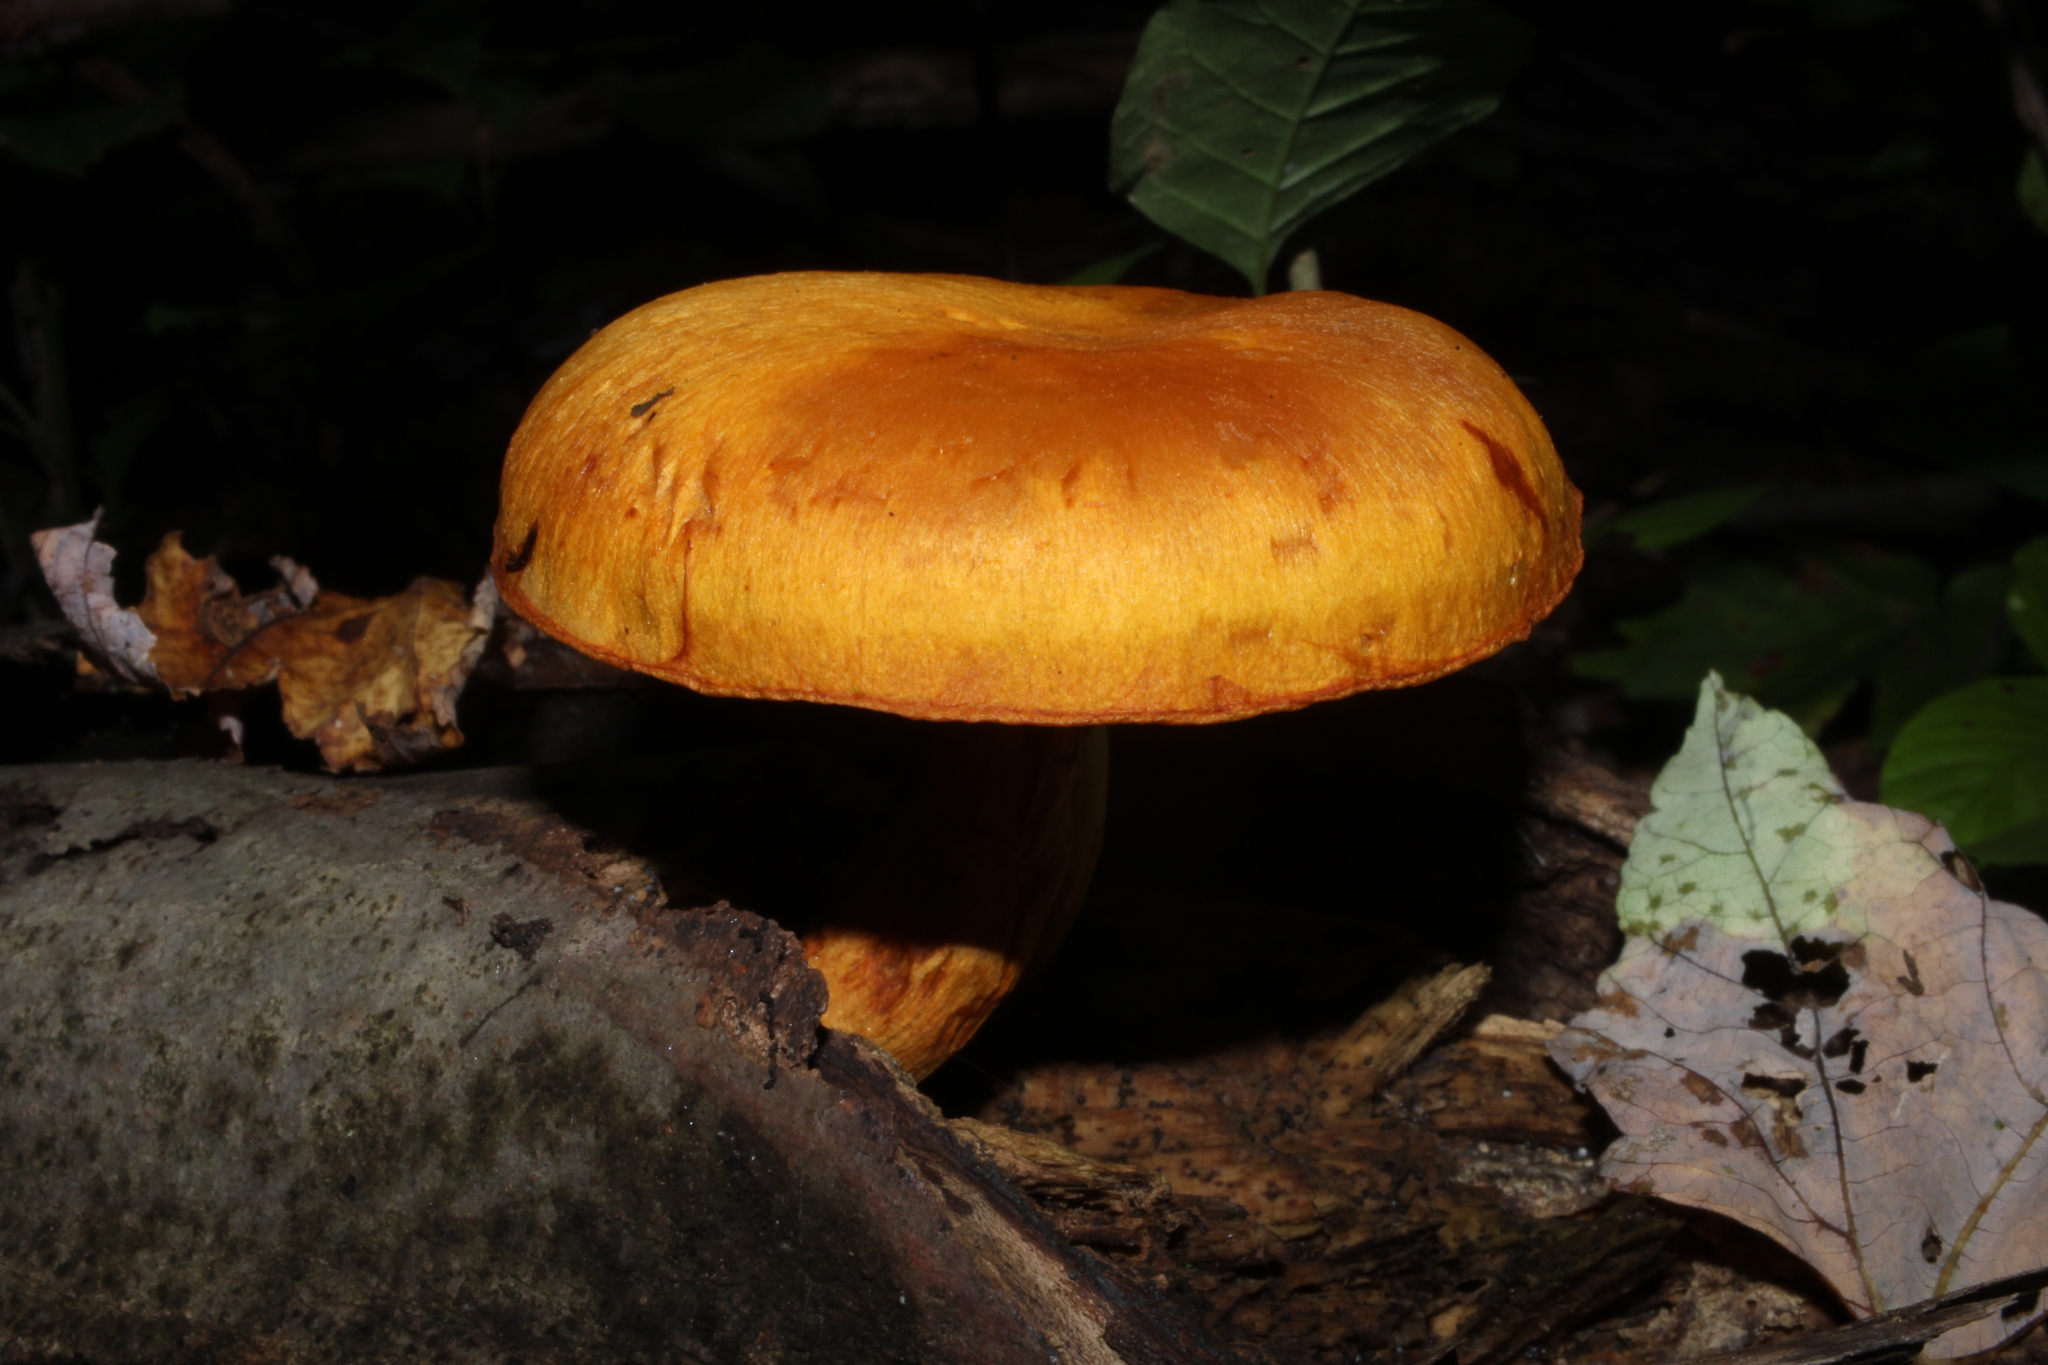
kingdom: Fungi
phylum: Basidiomycota
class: Agaricomycetes
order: Agaricales
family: Hymenogastraceae
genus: Gymnopilus
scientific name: Gymnopilus luteus
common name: Yellow gymnopilus
